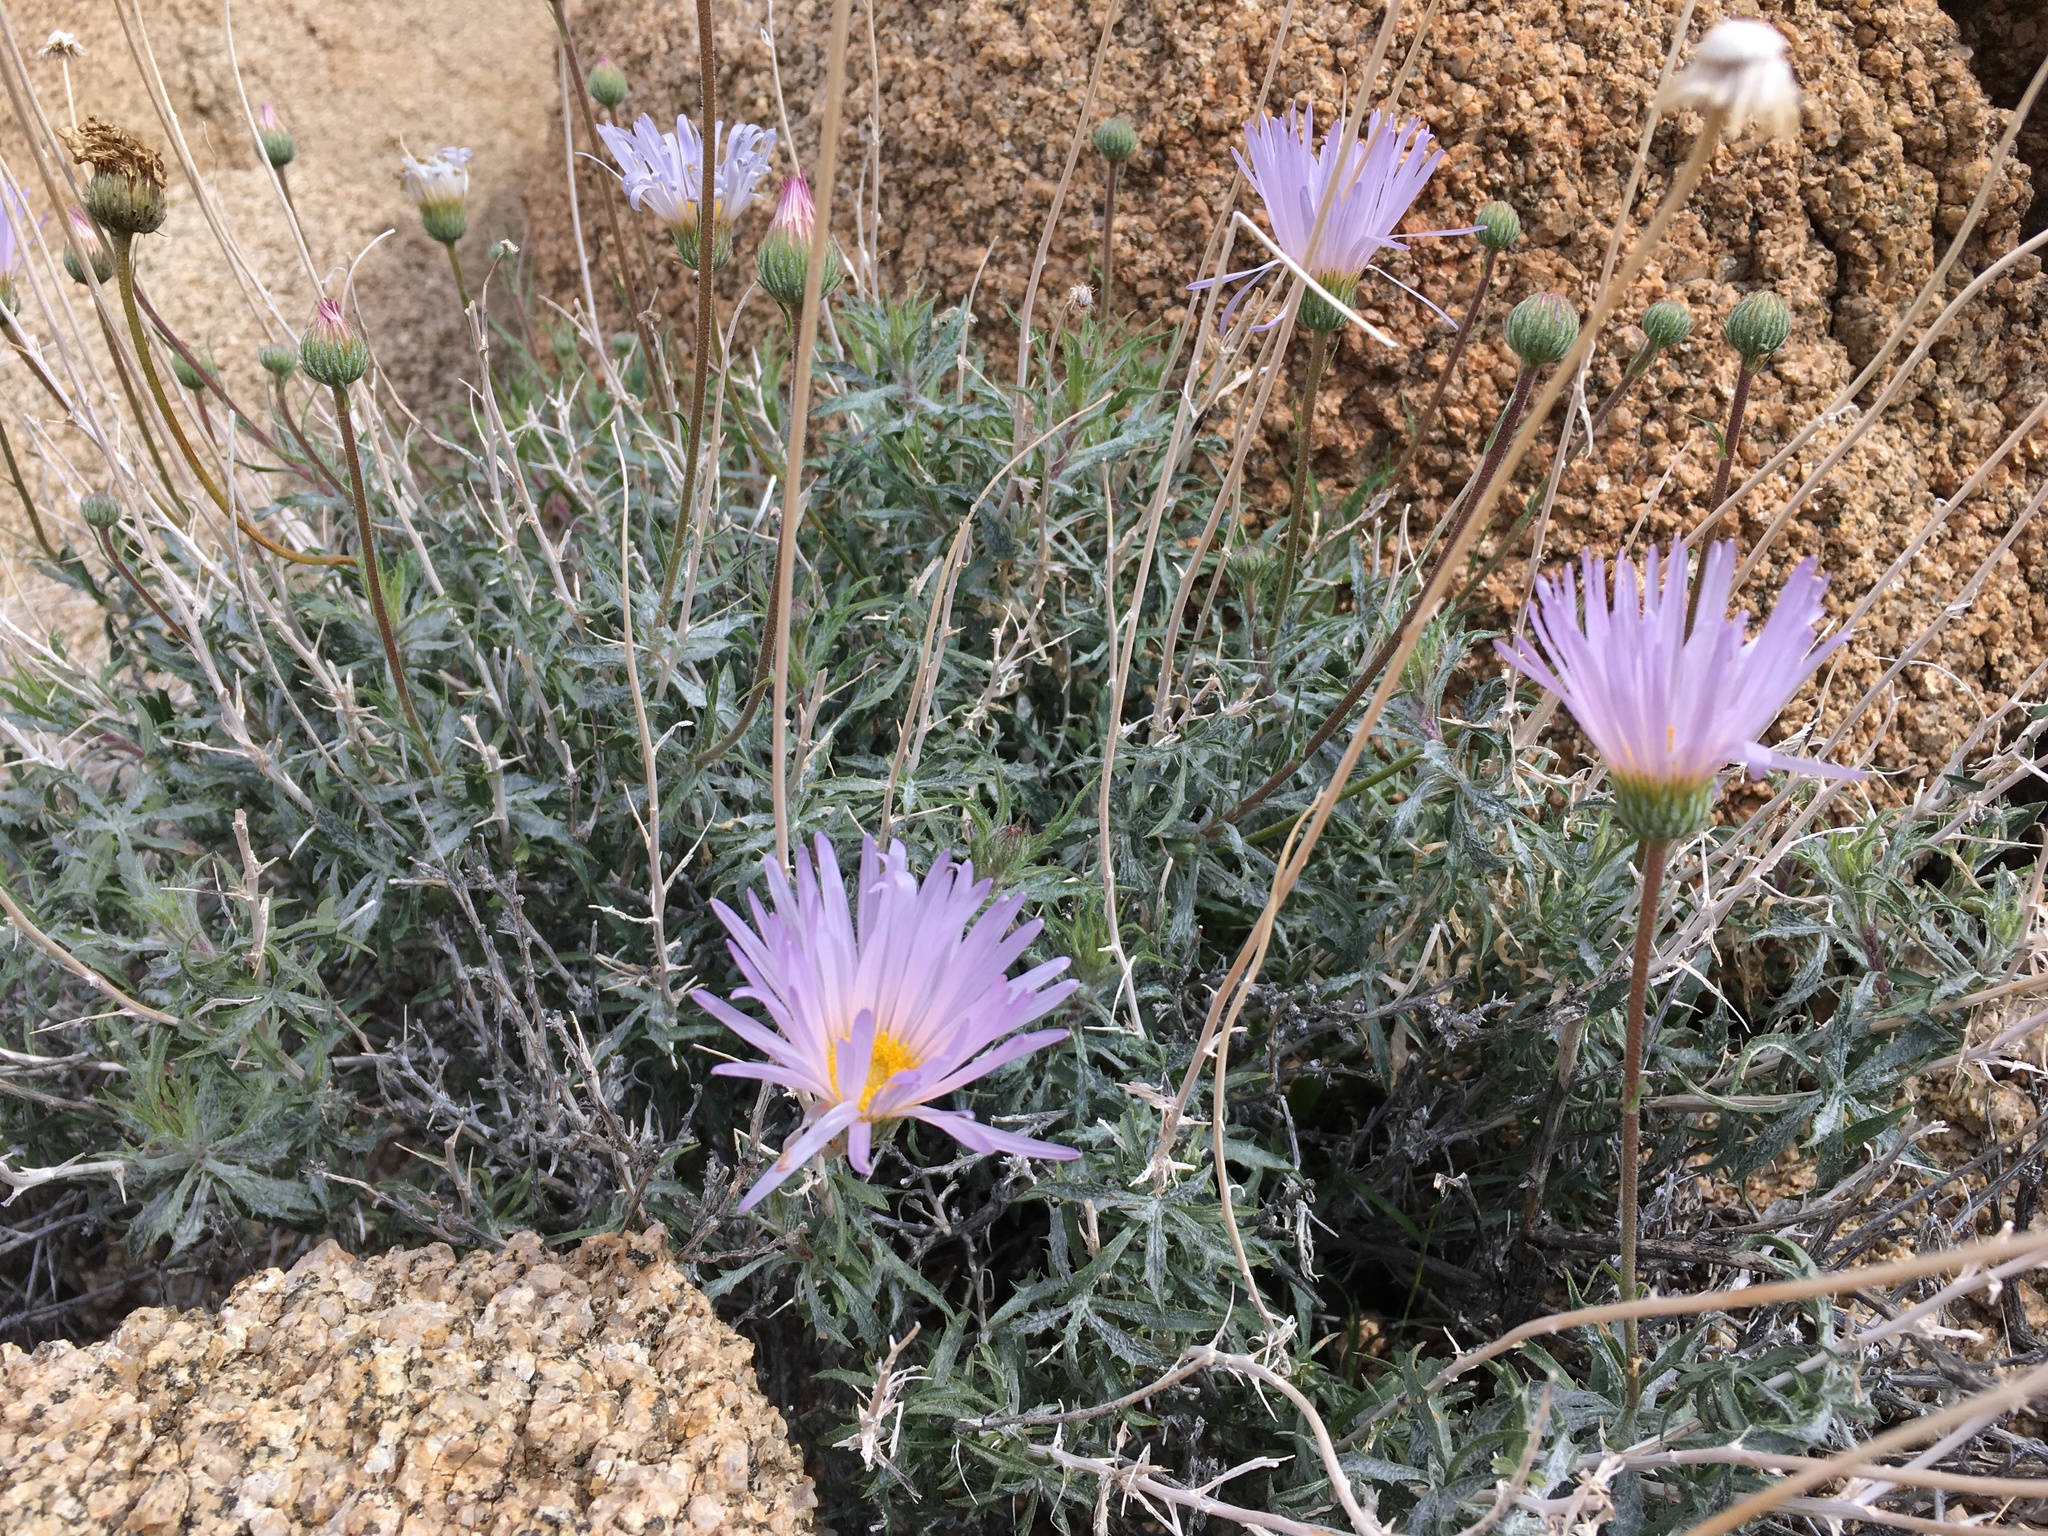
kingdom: Plantae
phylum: Tracheophyta
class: Magnoliopsida
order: Asterales
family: Asteraceae
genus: Xylorhiza
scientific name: Xylorhiza tortifolia
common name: Hurt-leaf woody-aster
